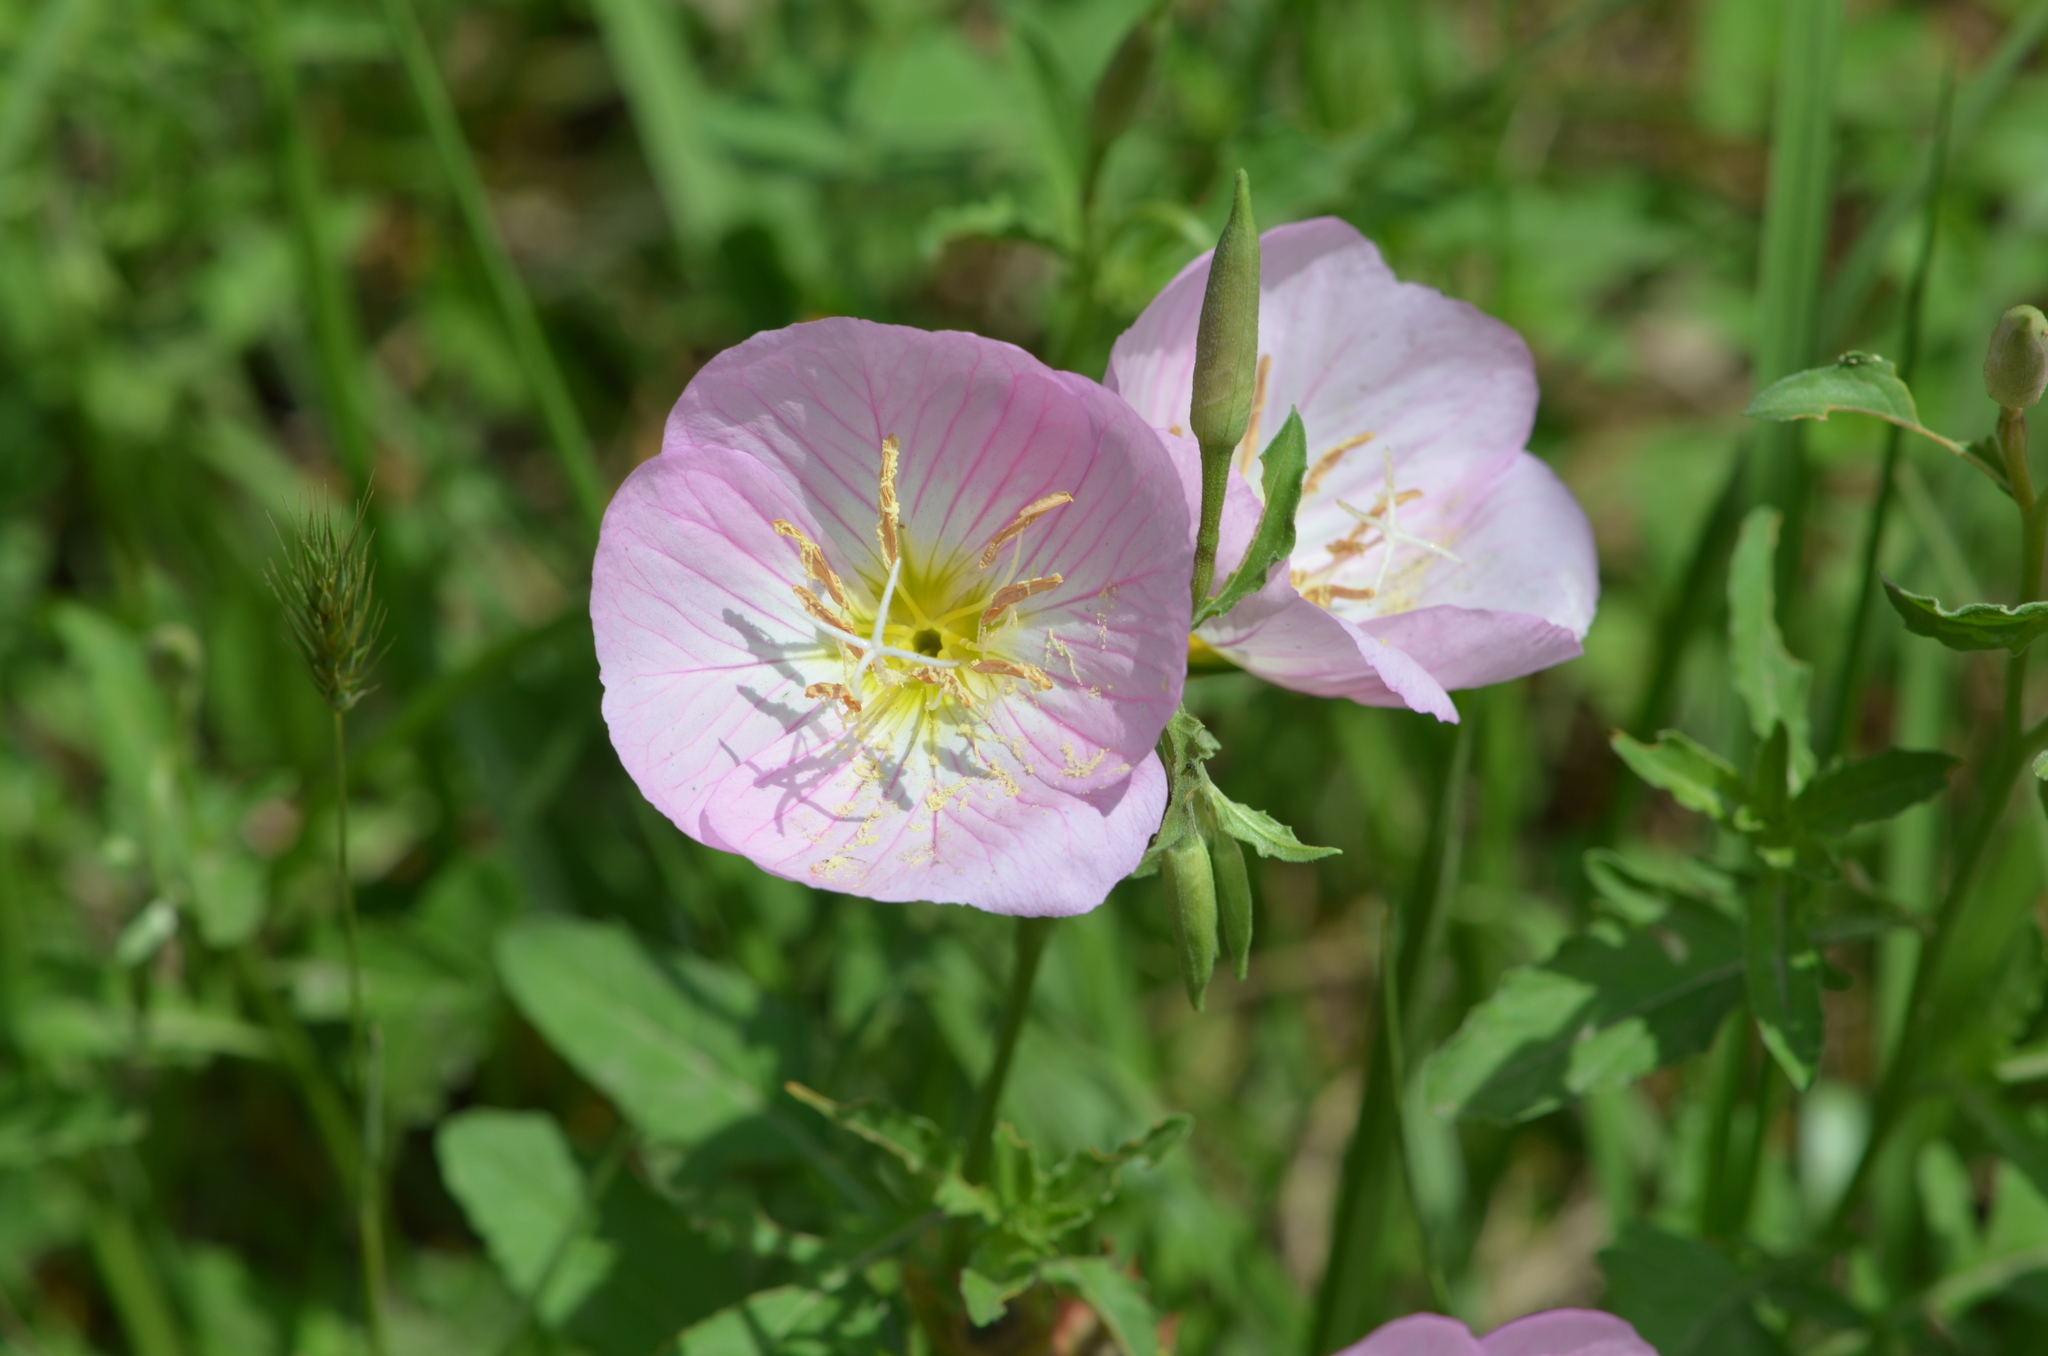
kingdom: Plantae
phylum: Tracheophyta
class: Magnoliopsida
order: Myrtales
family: Onagraceae
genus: Oenothera
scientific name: Oenothera speciosa
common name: White evening-primrose
